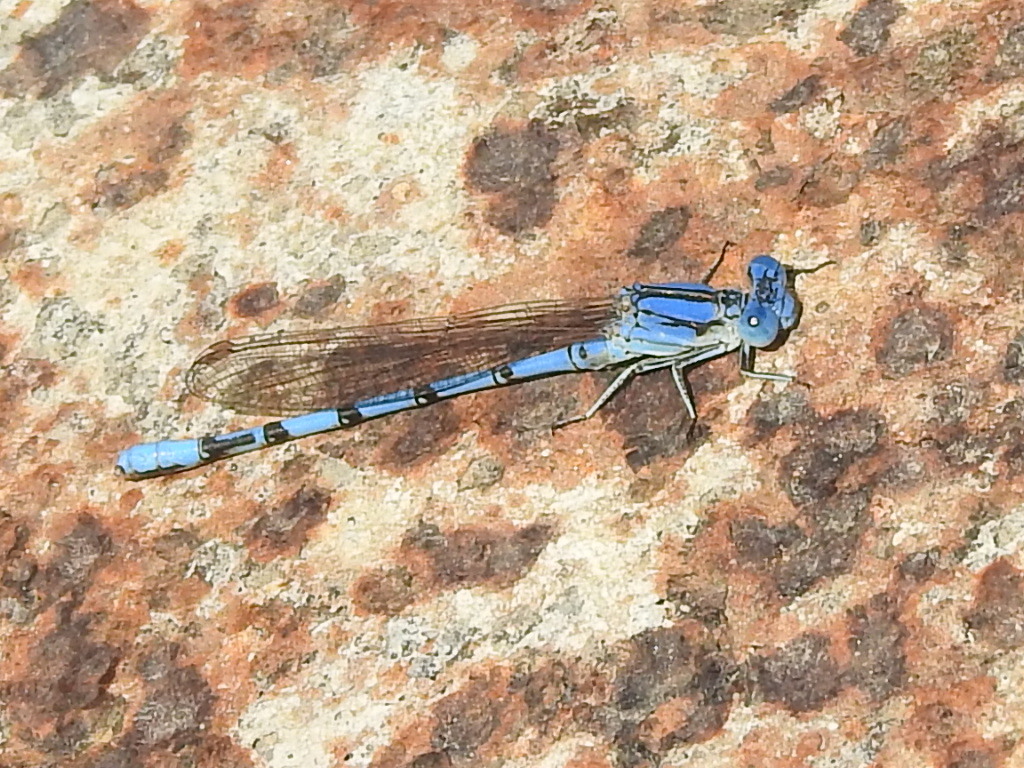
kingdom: Animalia
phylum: Arthropoda
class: Insecta
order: Odonata
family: Coenagrionidae
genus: Argia
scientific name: Argia nahuana
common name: Aztec dancer
